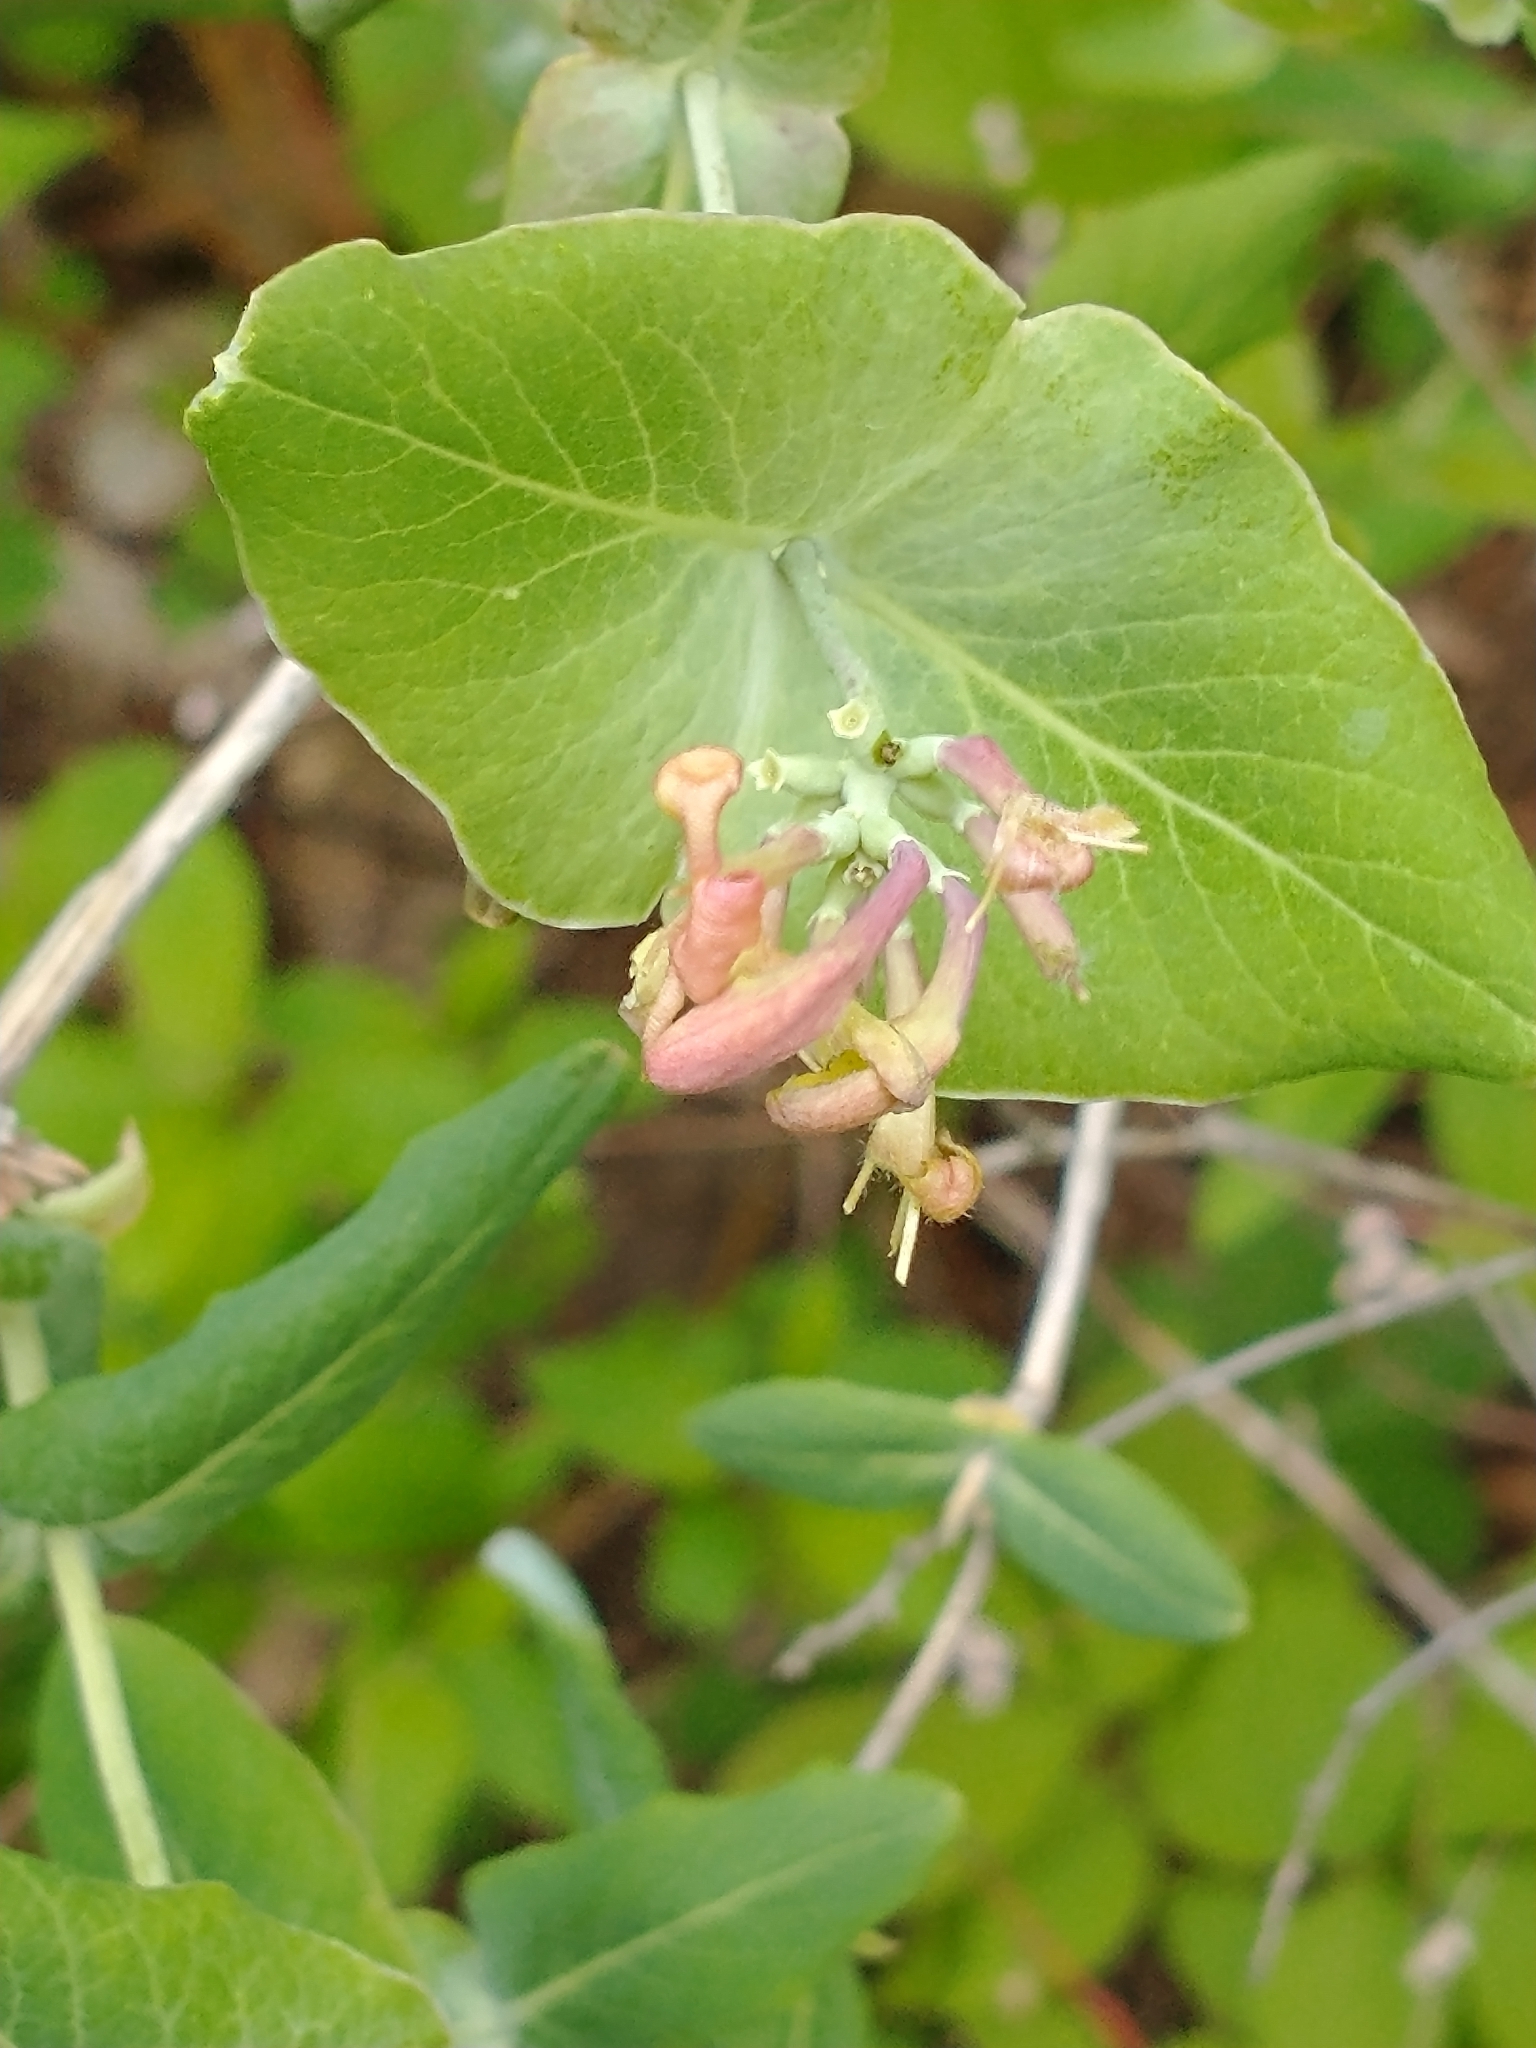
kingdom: Plantae
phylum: Tracheophyta
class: Magnoliopsida
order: Dipsacales
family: Caprifoliaceae
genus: Lonicera
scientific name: Lonicera dioica
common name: Limber honeysuckle
